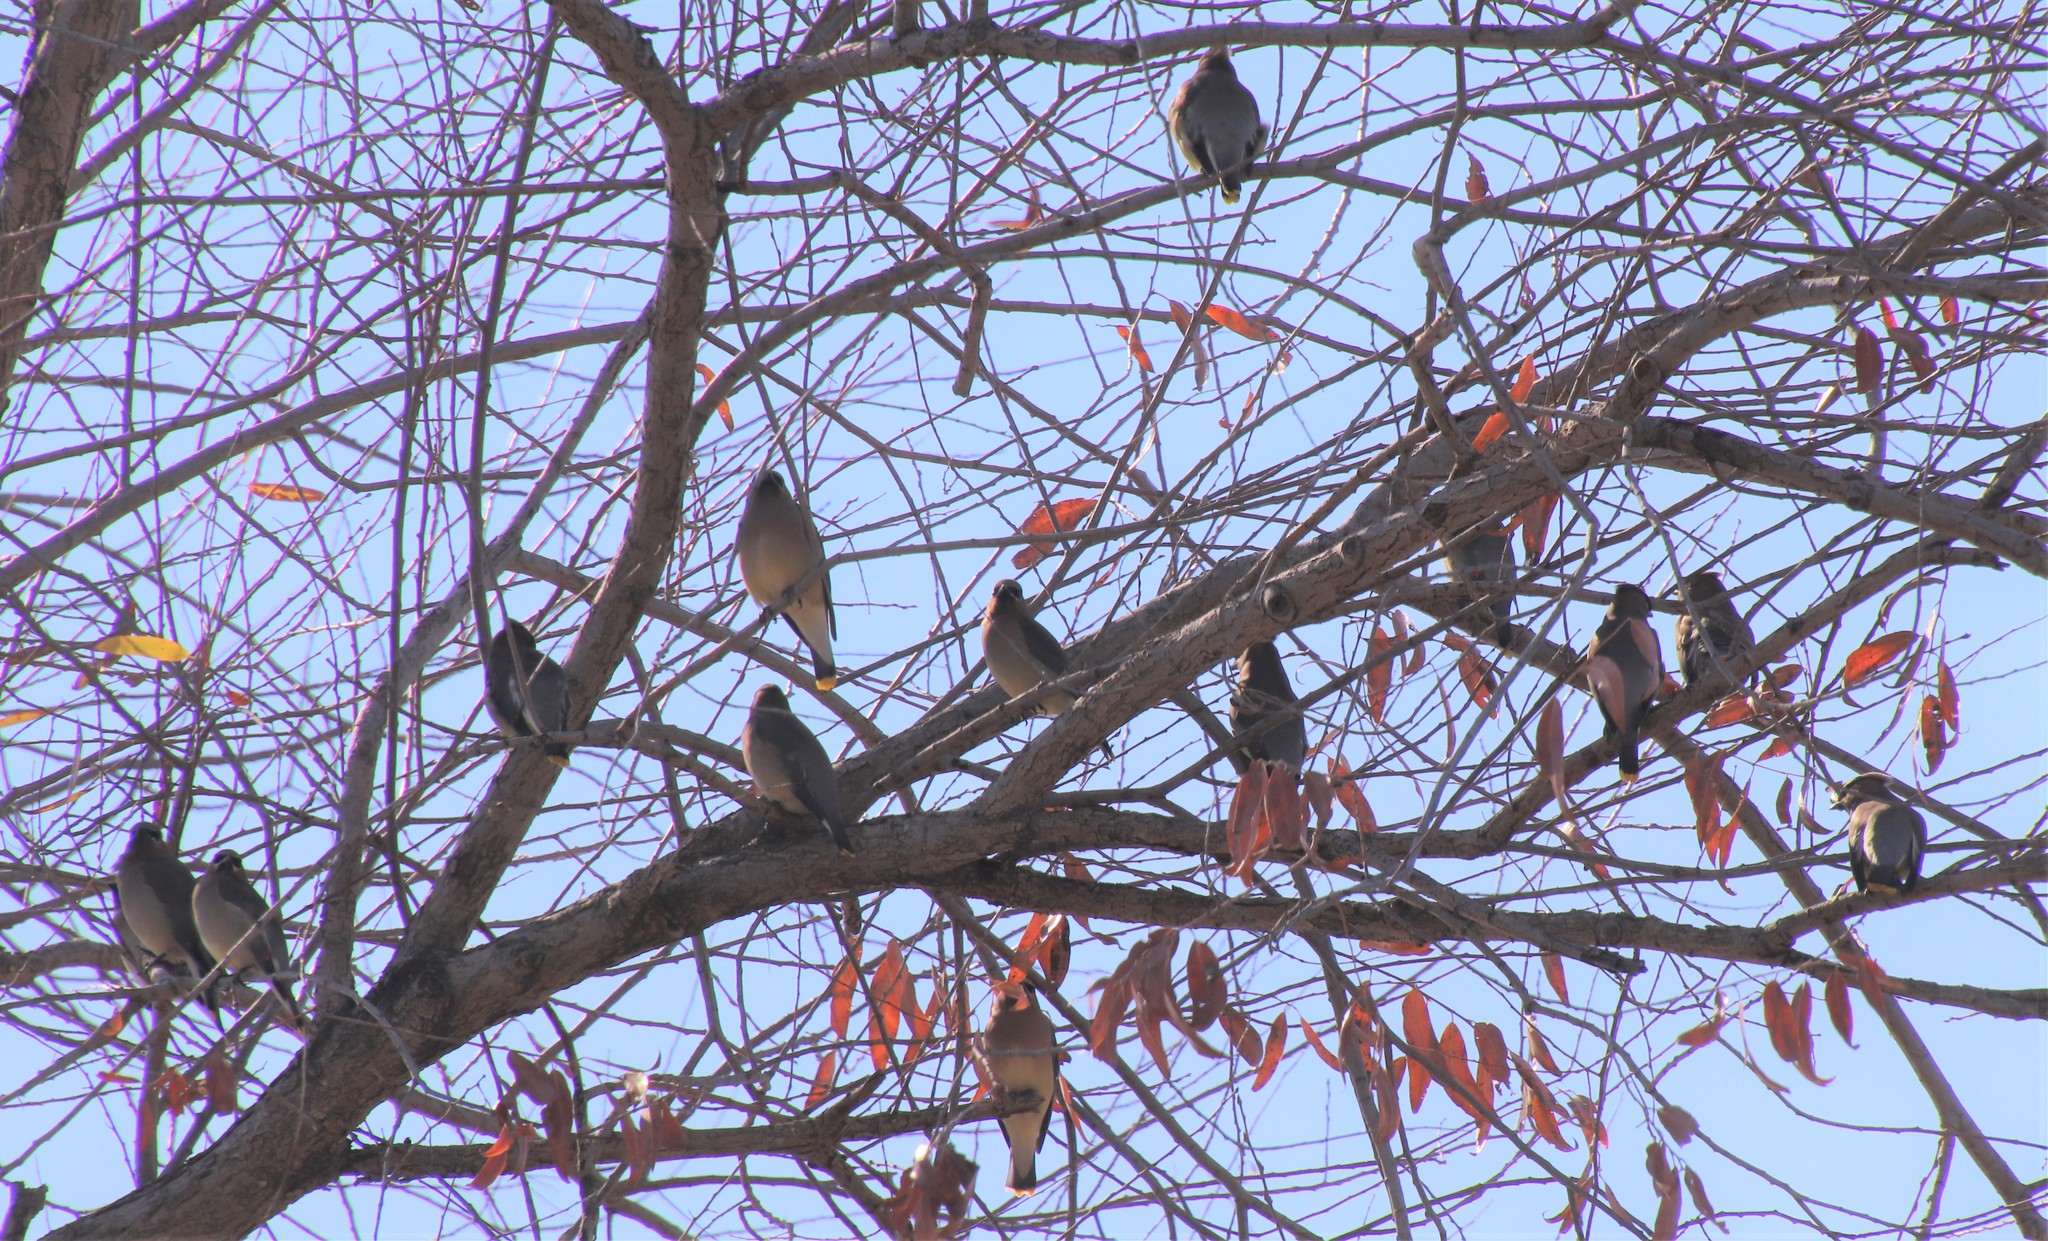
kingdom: Animalia
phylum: Chordata
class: Aves
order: Passeriformes
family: Bombycillidae
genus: Bombycilla
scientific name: Bombycilla cedrorum
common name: Cedar waxwing
